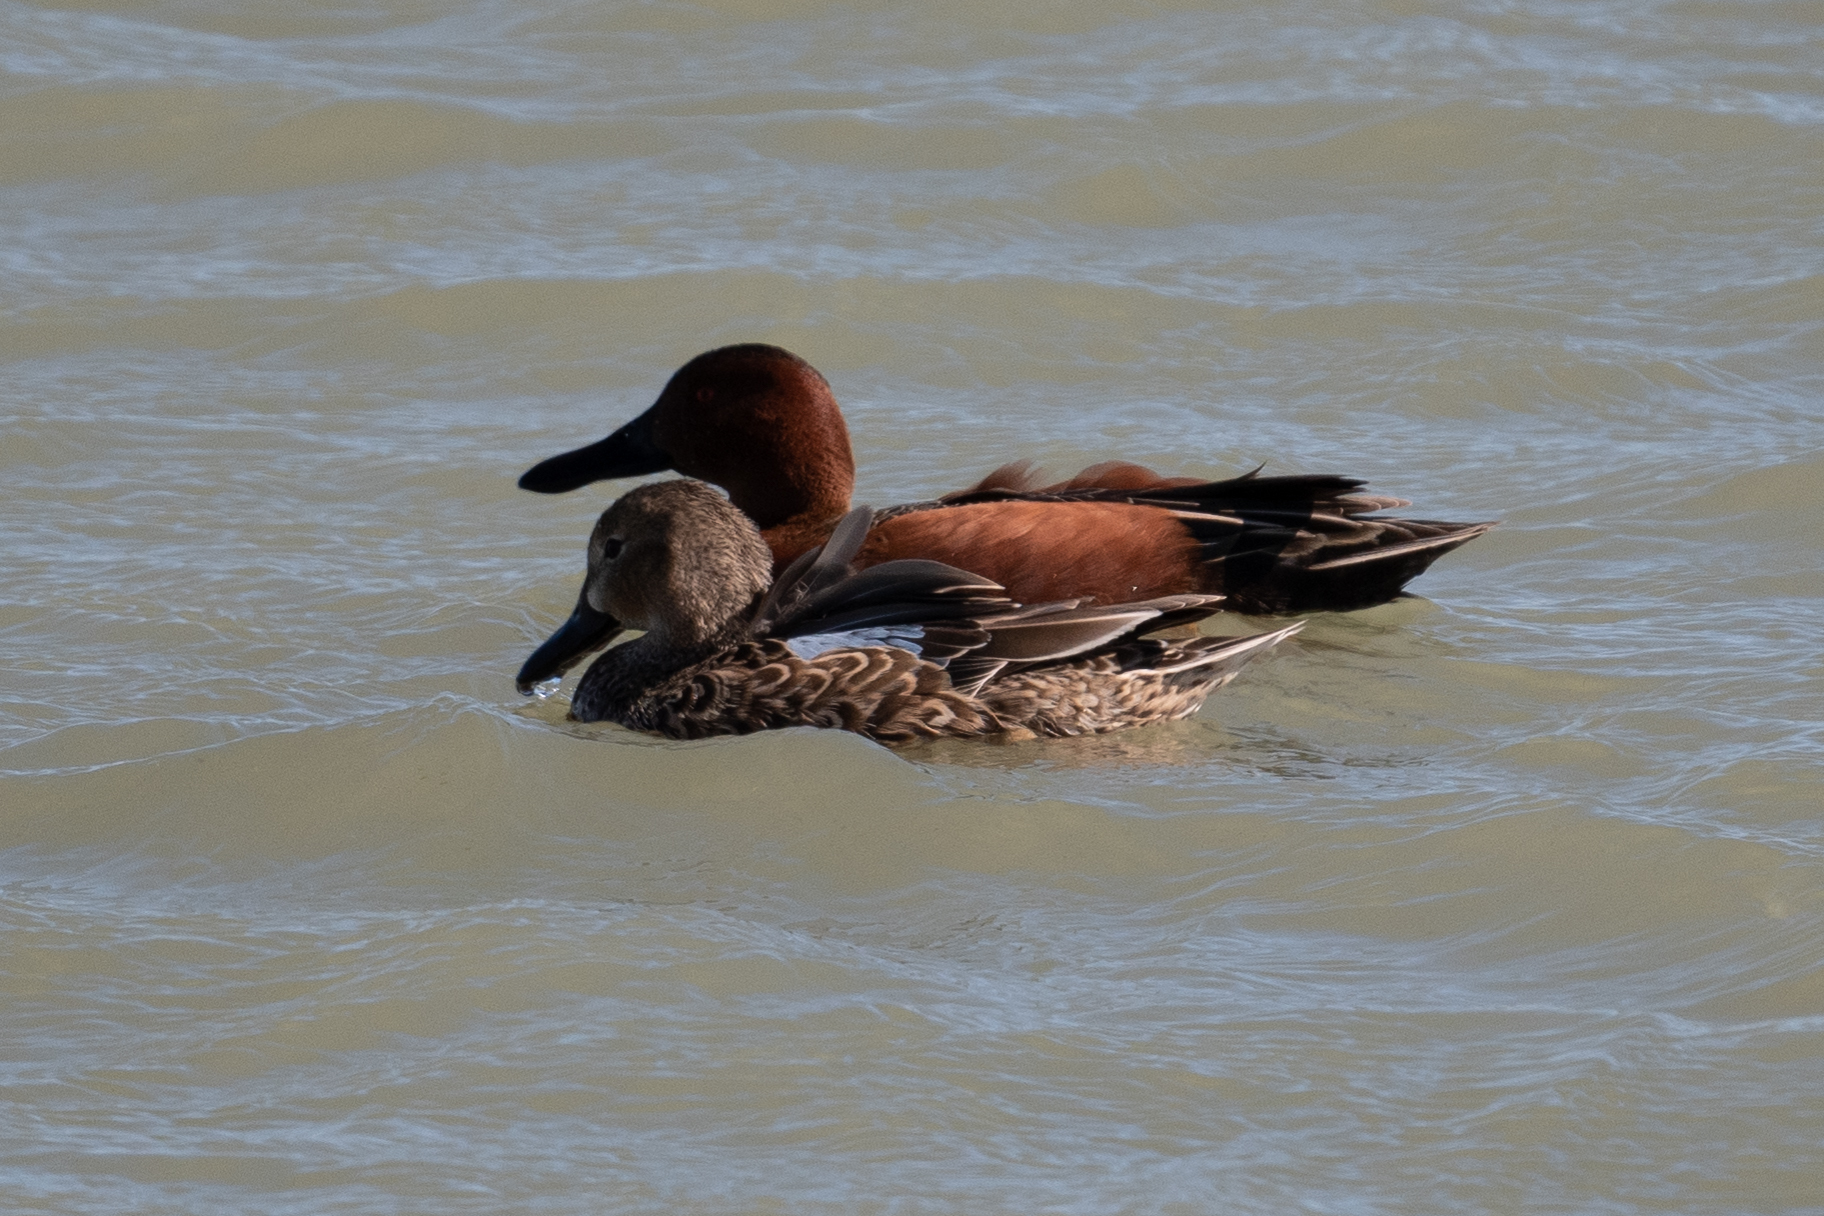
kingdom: Animalia
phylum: Chordata
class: Aves
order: Anseriformes
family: Anatidae
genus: Spatula
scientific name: Spatula cyanoptera
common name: Cinnamon teal
